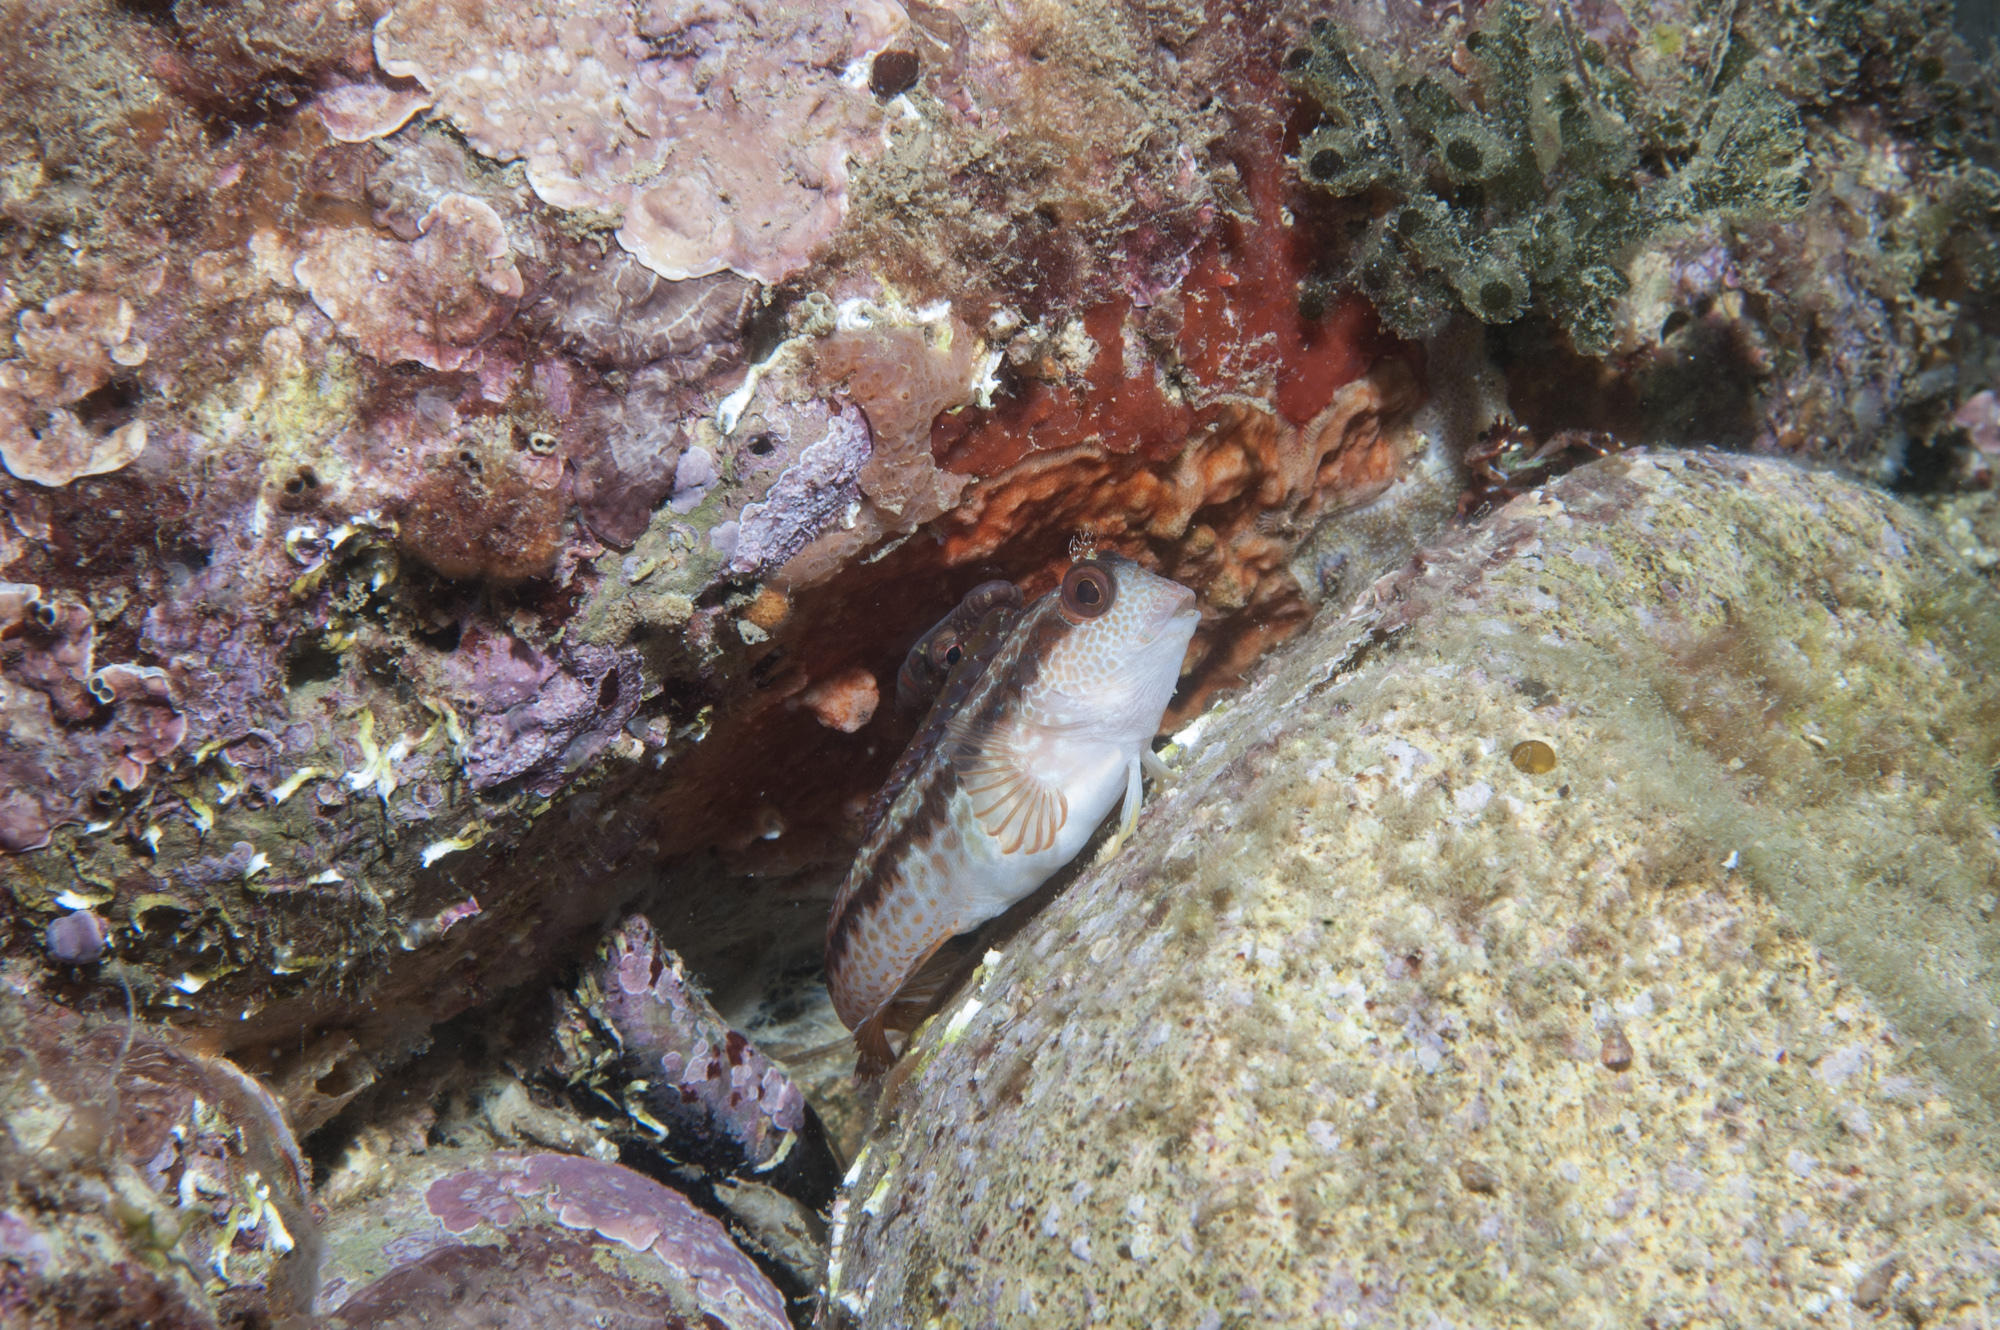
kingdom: Animalia
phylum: Chordata
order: Perciformes
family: Blenniidae
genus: Parablennius
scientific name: Parablennius pilicornis
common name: Ringneck blenny
